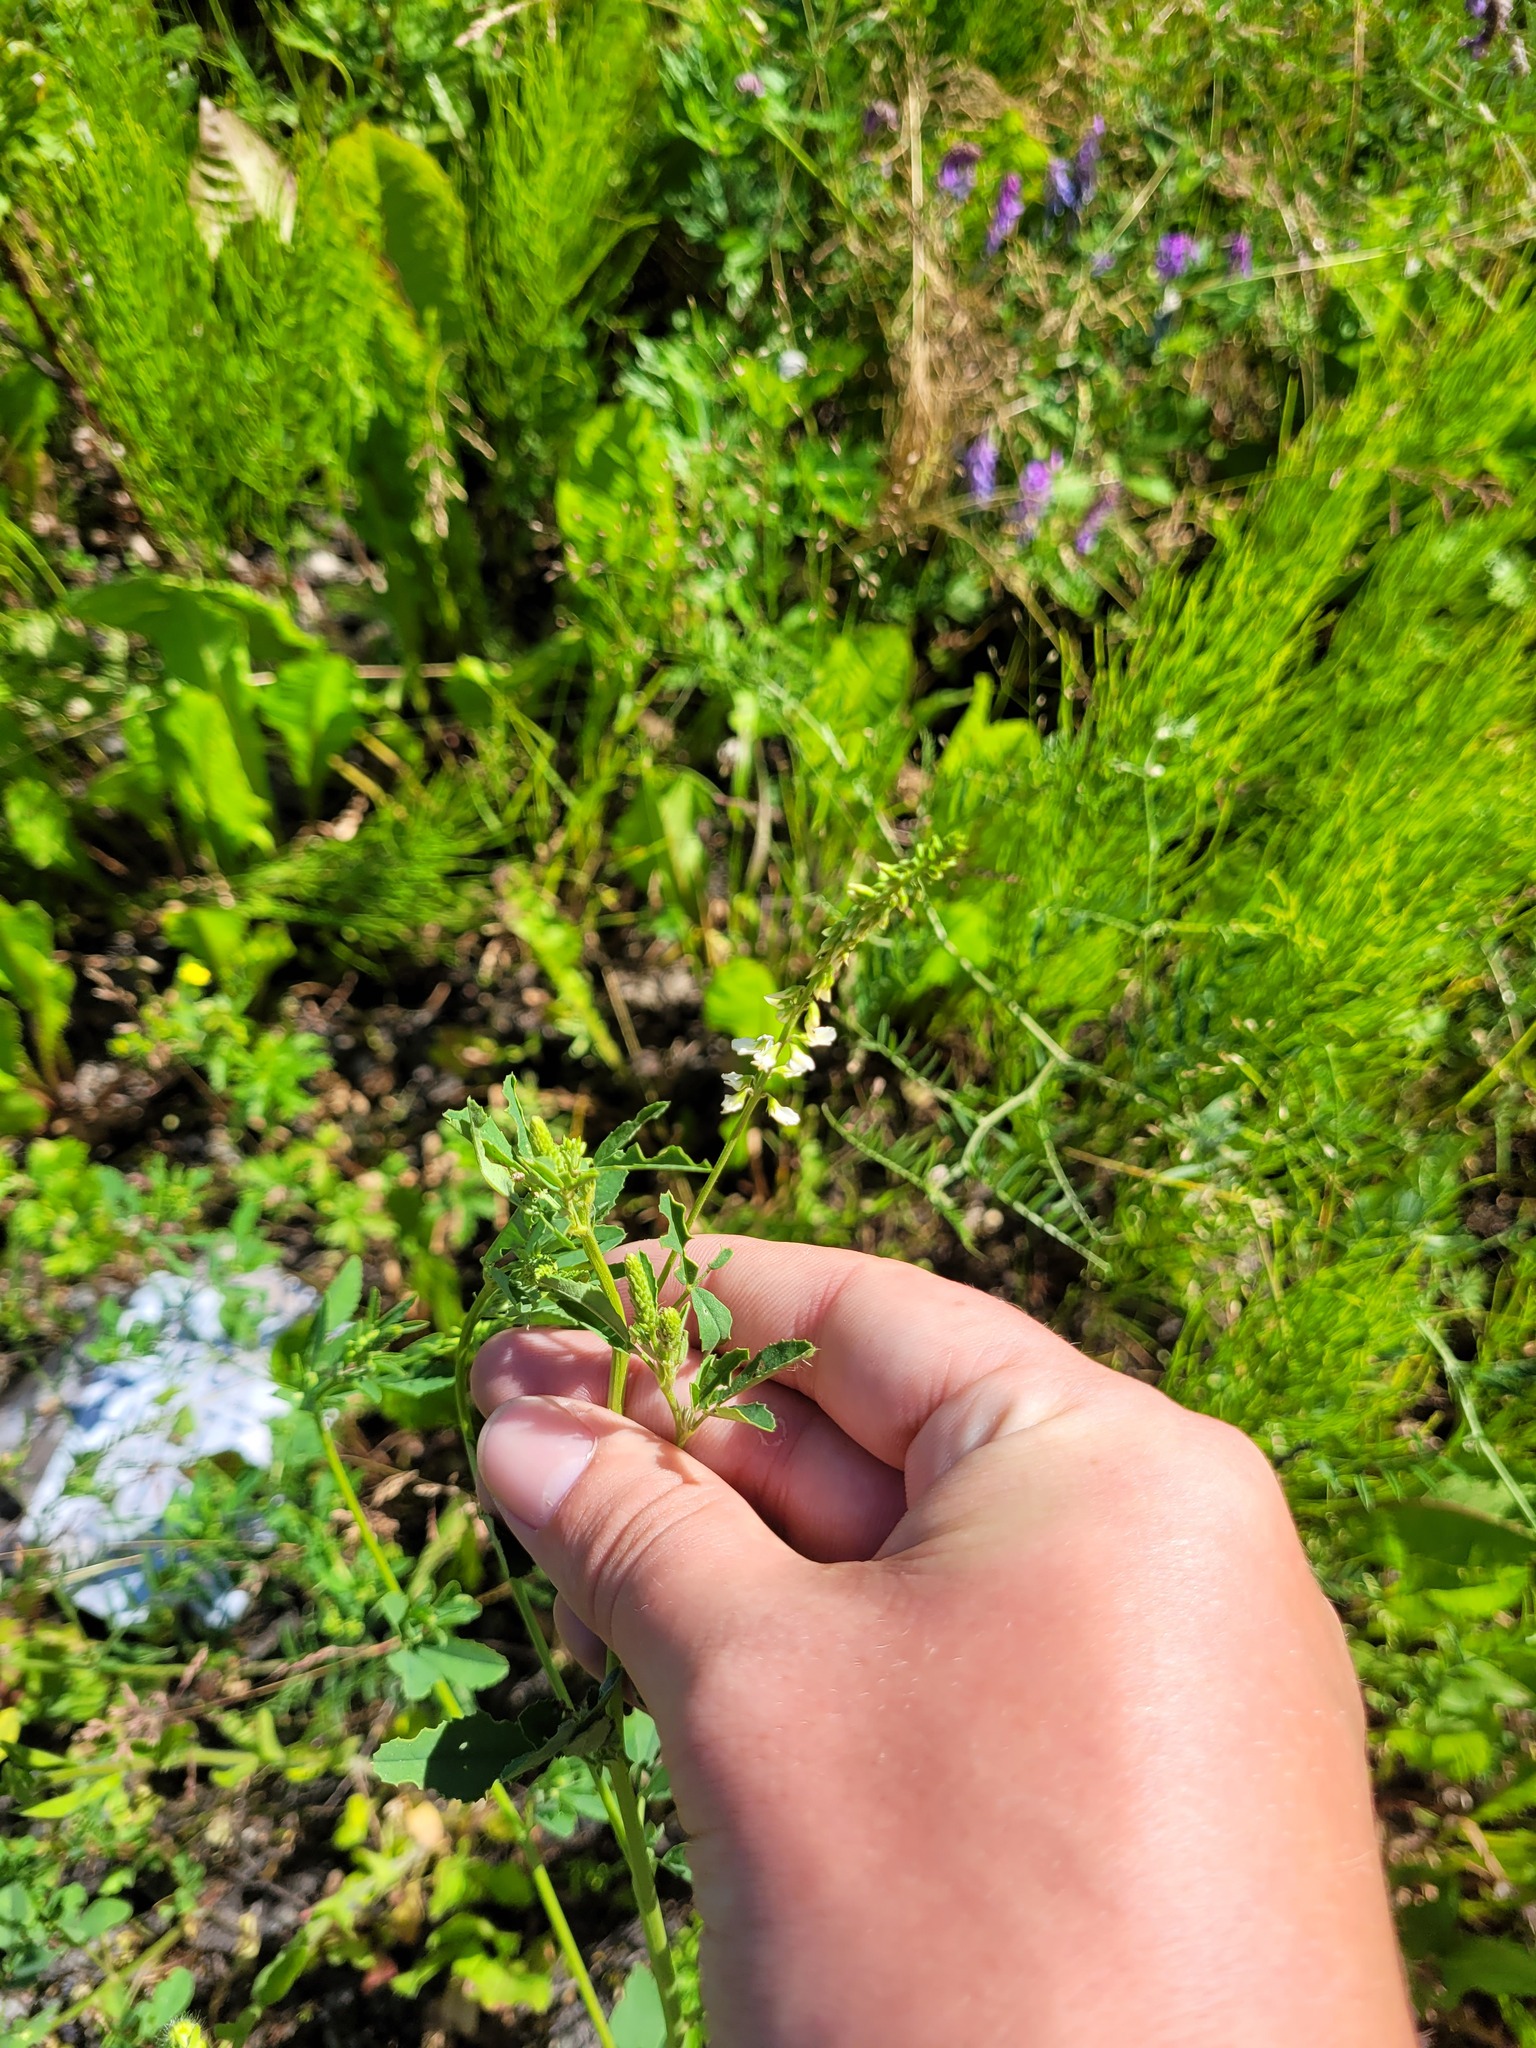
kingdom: Plantae
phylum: Tracheophyta
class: Magnoliopsida
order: Fabales
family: Fabaceae
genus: Melilotus
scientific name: Melilotus albus
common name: White melilot
